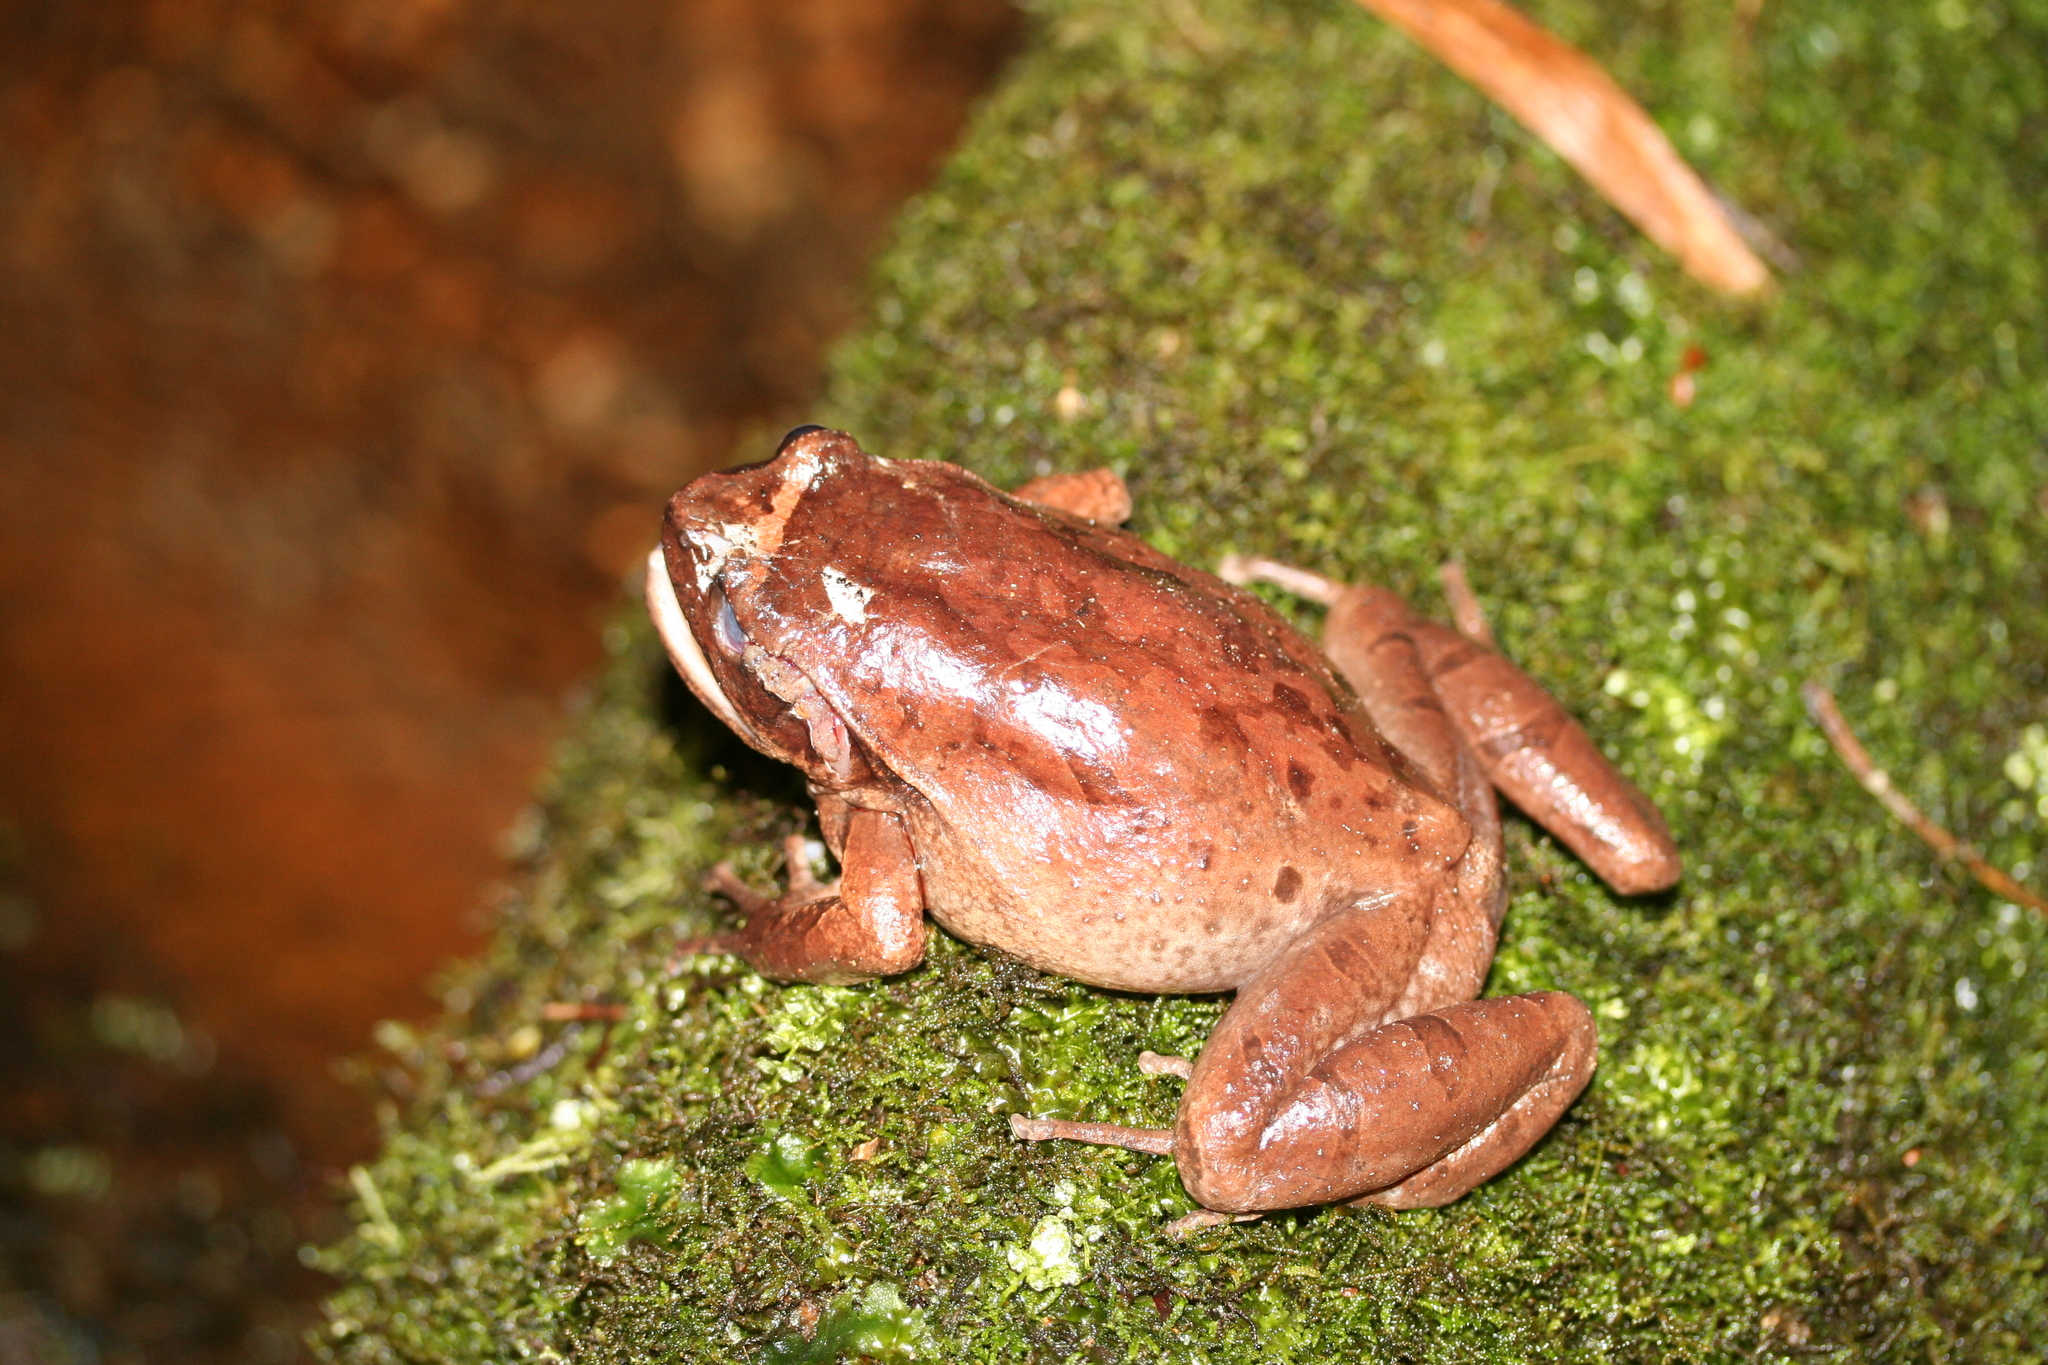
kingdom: Animalia
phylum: Chordata
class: Amphibia
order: Anura
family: Microhylidae
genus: Plethodontohyla
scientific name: Plethodontohyla inguinalis
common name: Boulenger's digging frog
